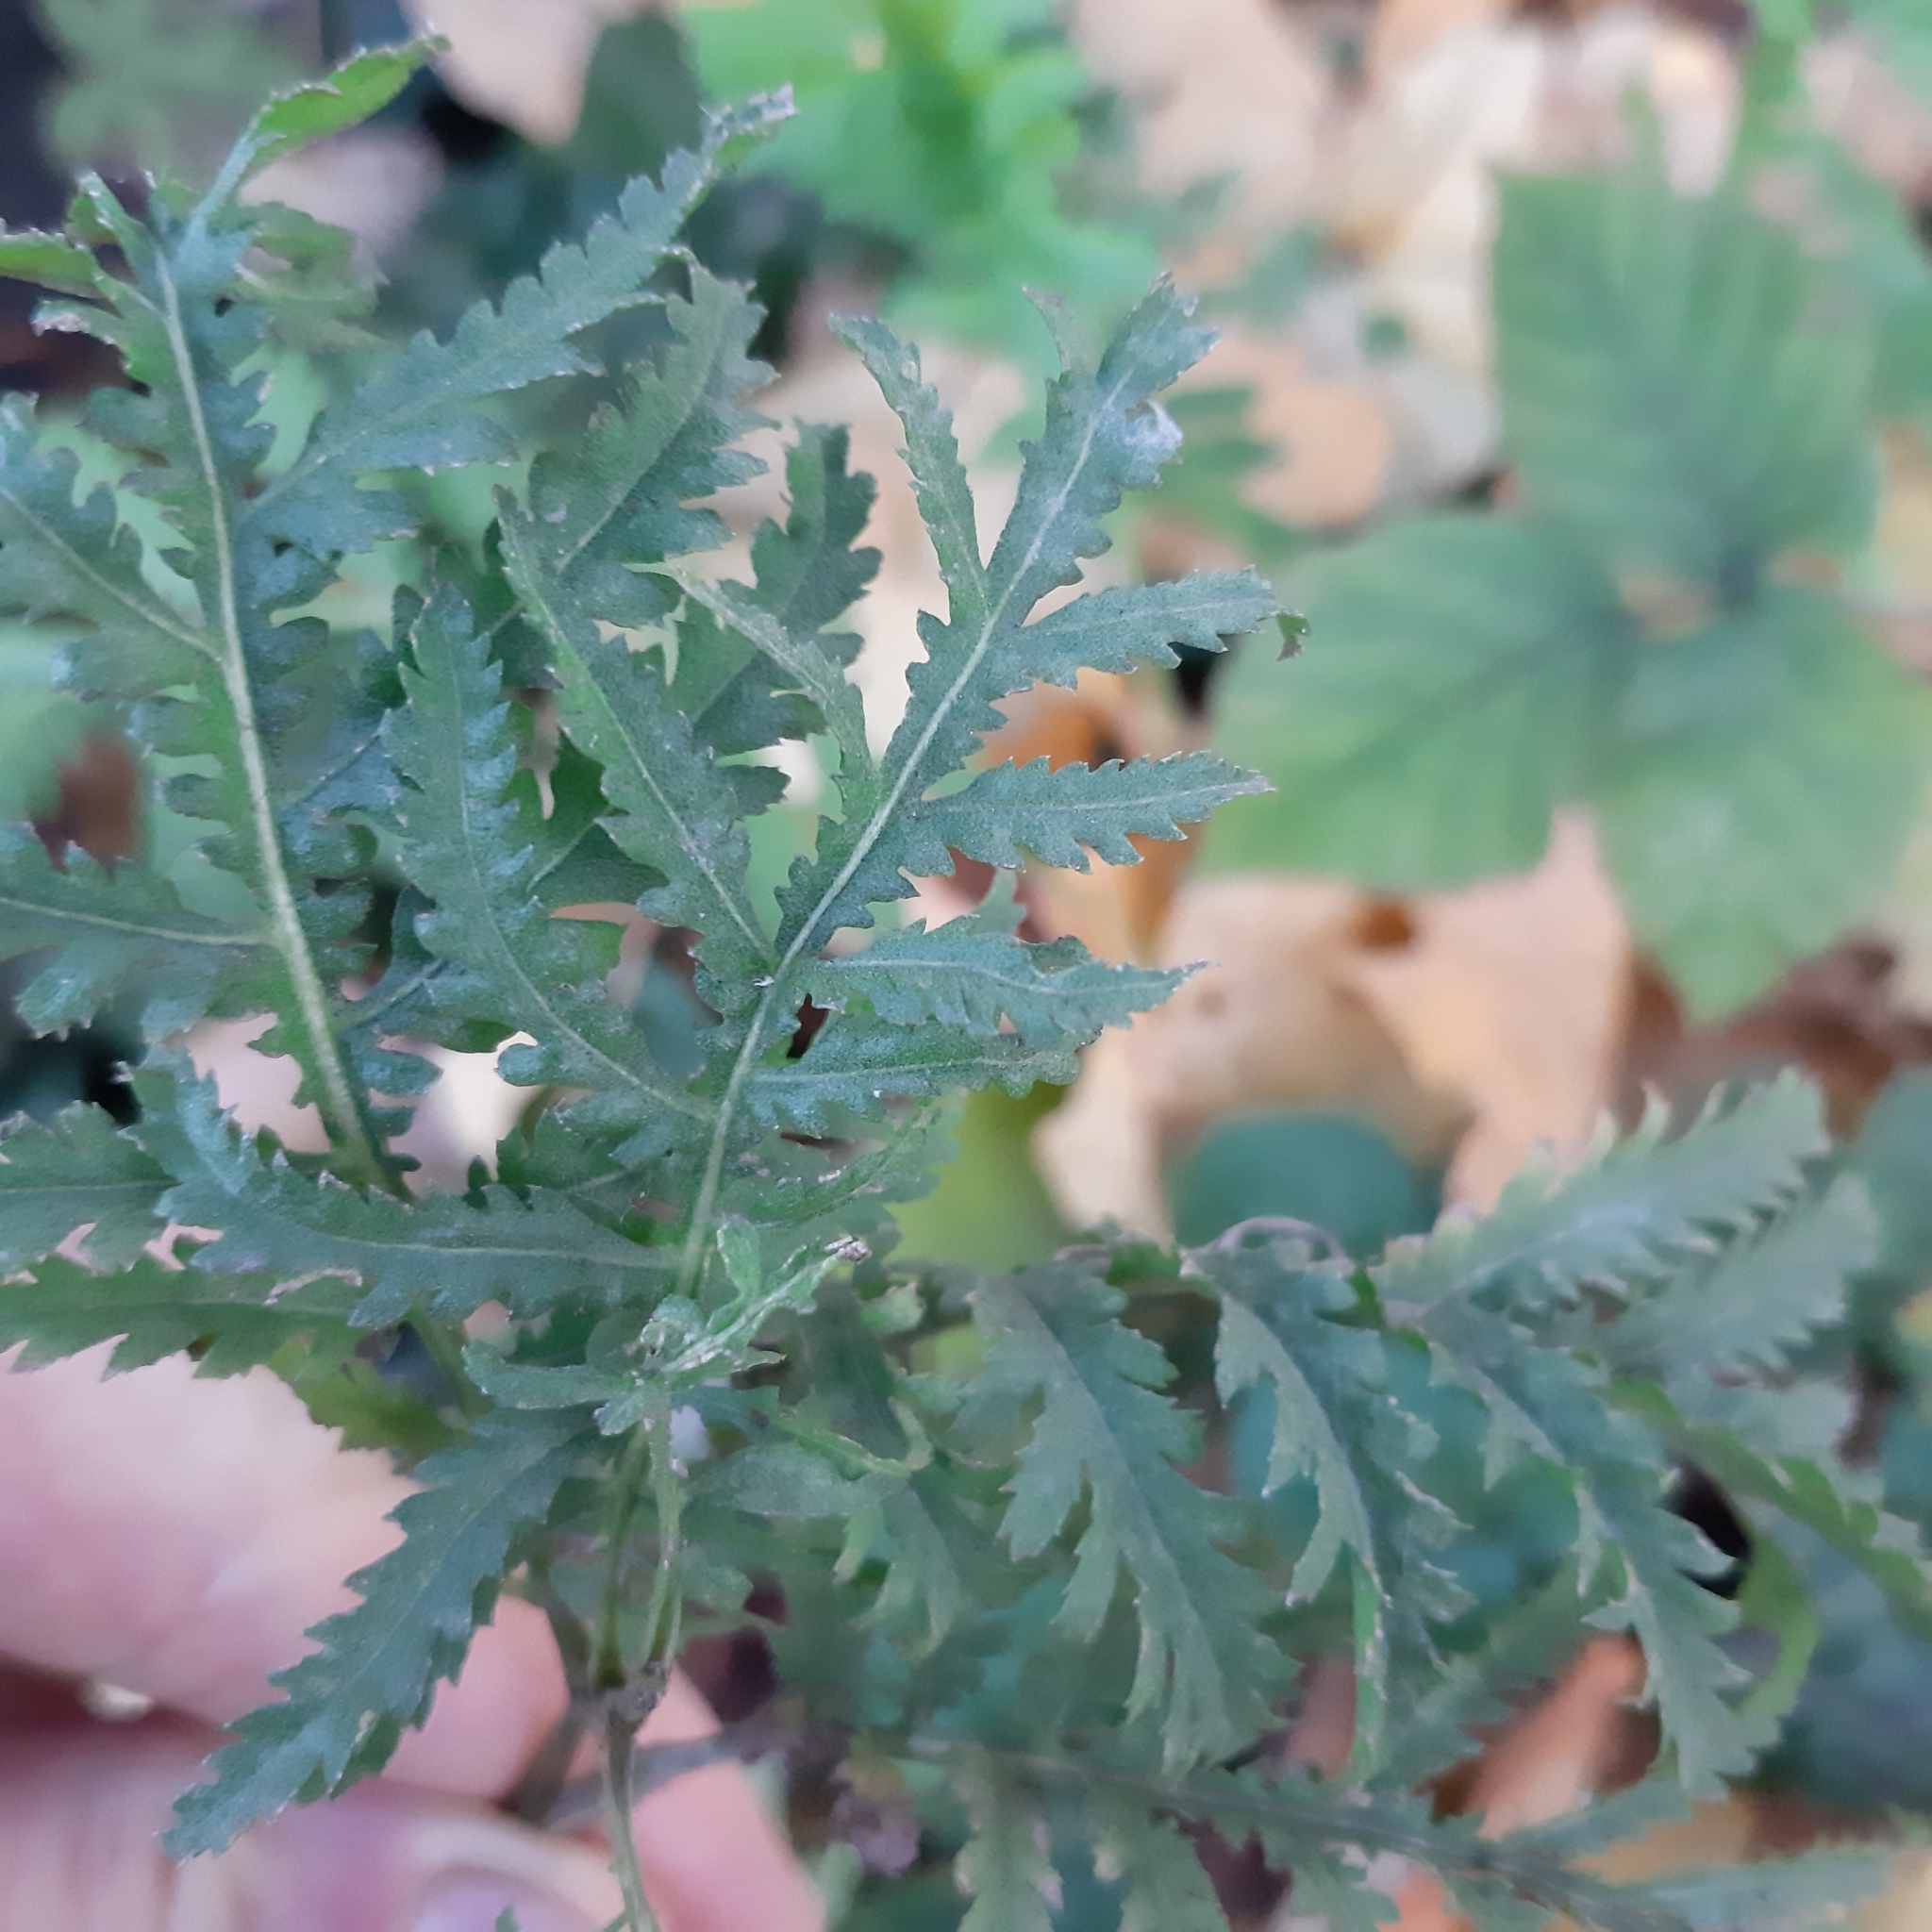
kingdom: Plantae
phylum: Tracheophyta
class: Magnoliopsida
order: Asterales
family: Asteraceae
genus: Tanacetum
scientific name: Tanacetum vulgare
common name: Common tansy
